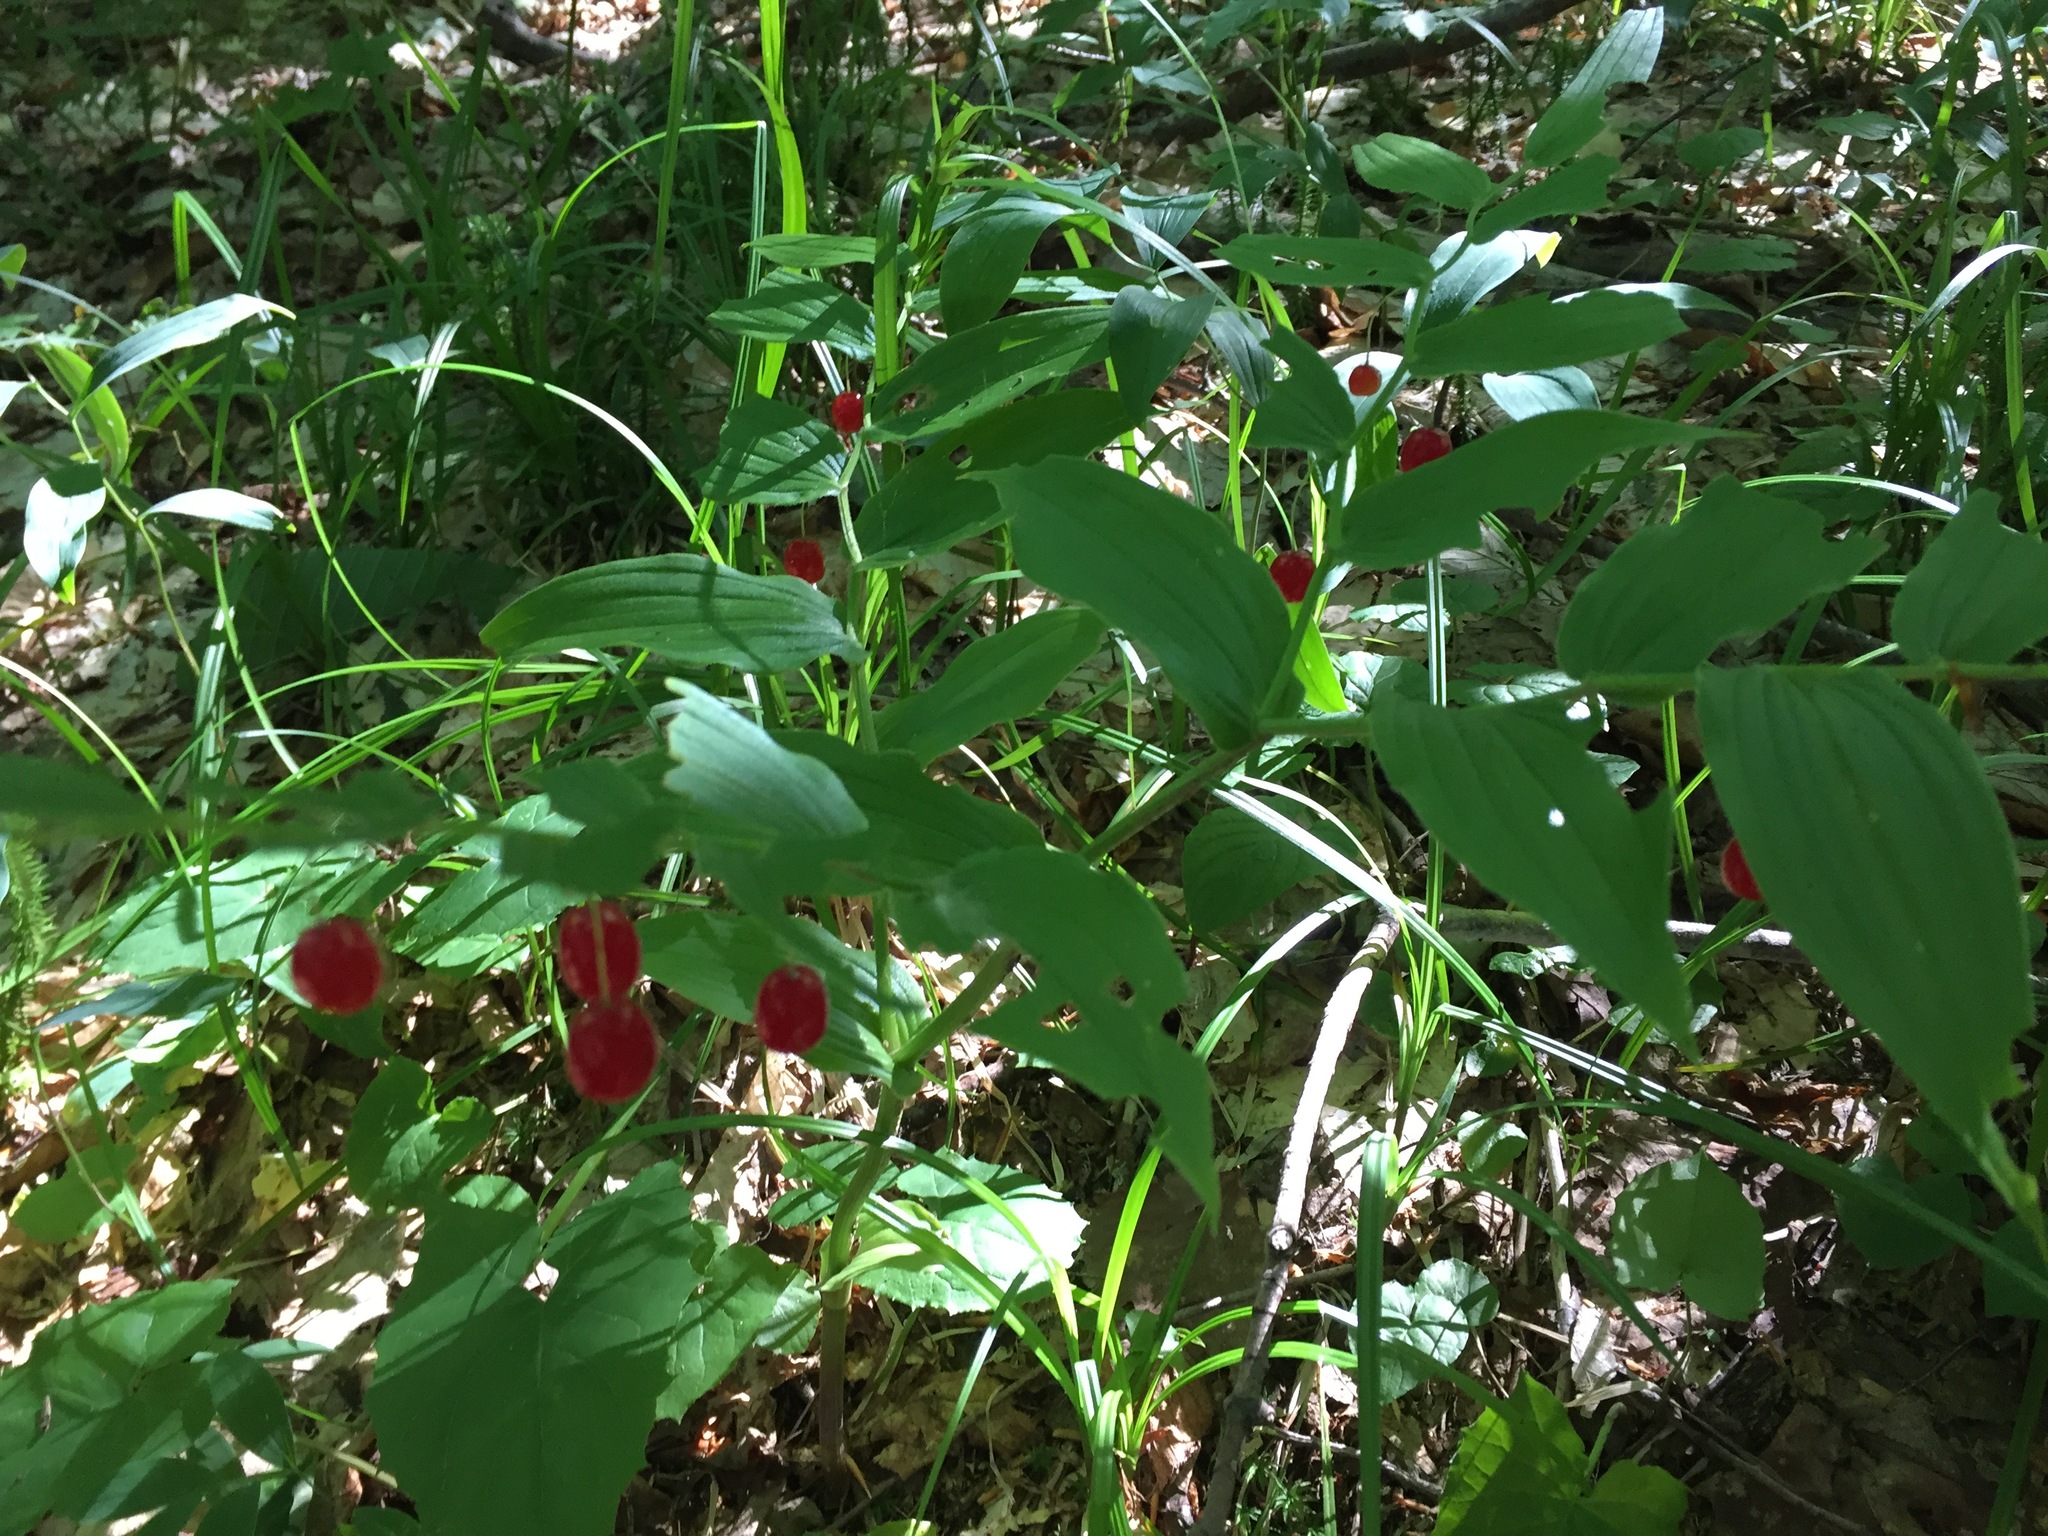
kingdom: Plantae
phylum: Tracheophyta
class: Liliopsida
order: Liliales
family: Liliaceae
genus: Streptopus
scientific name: Streptopus lanceolatus
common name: Rose mandarin
